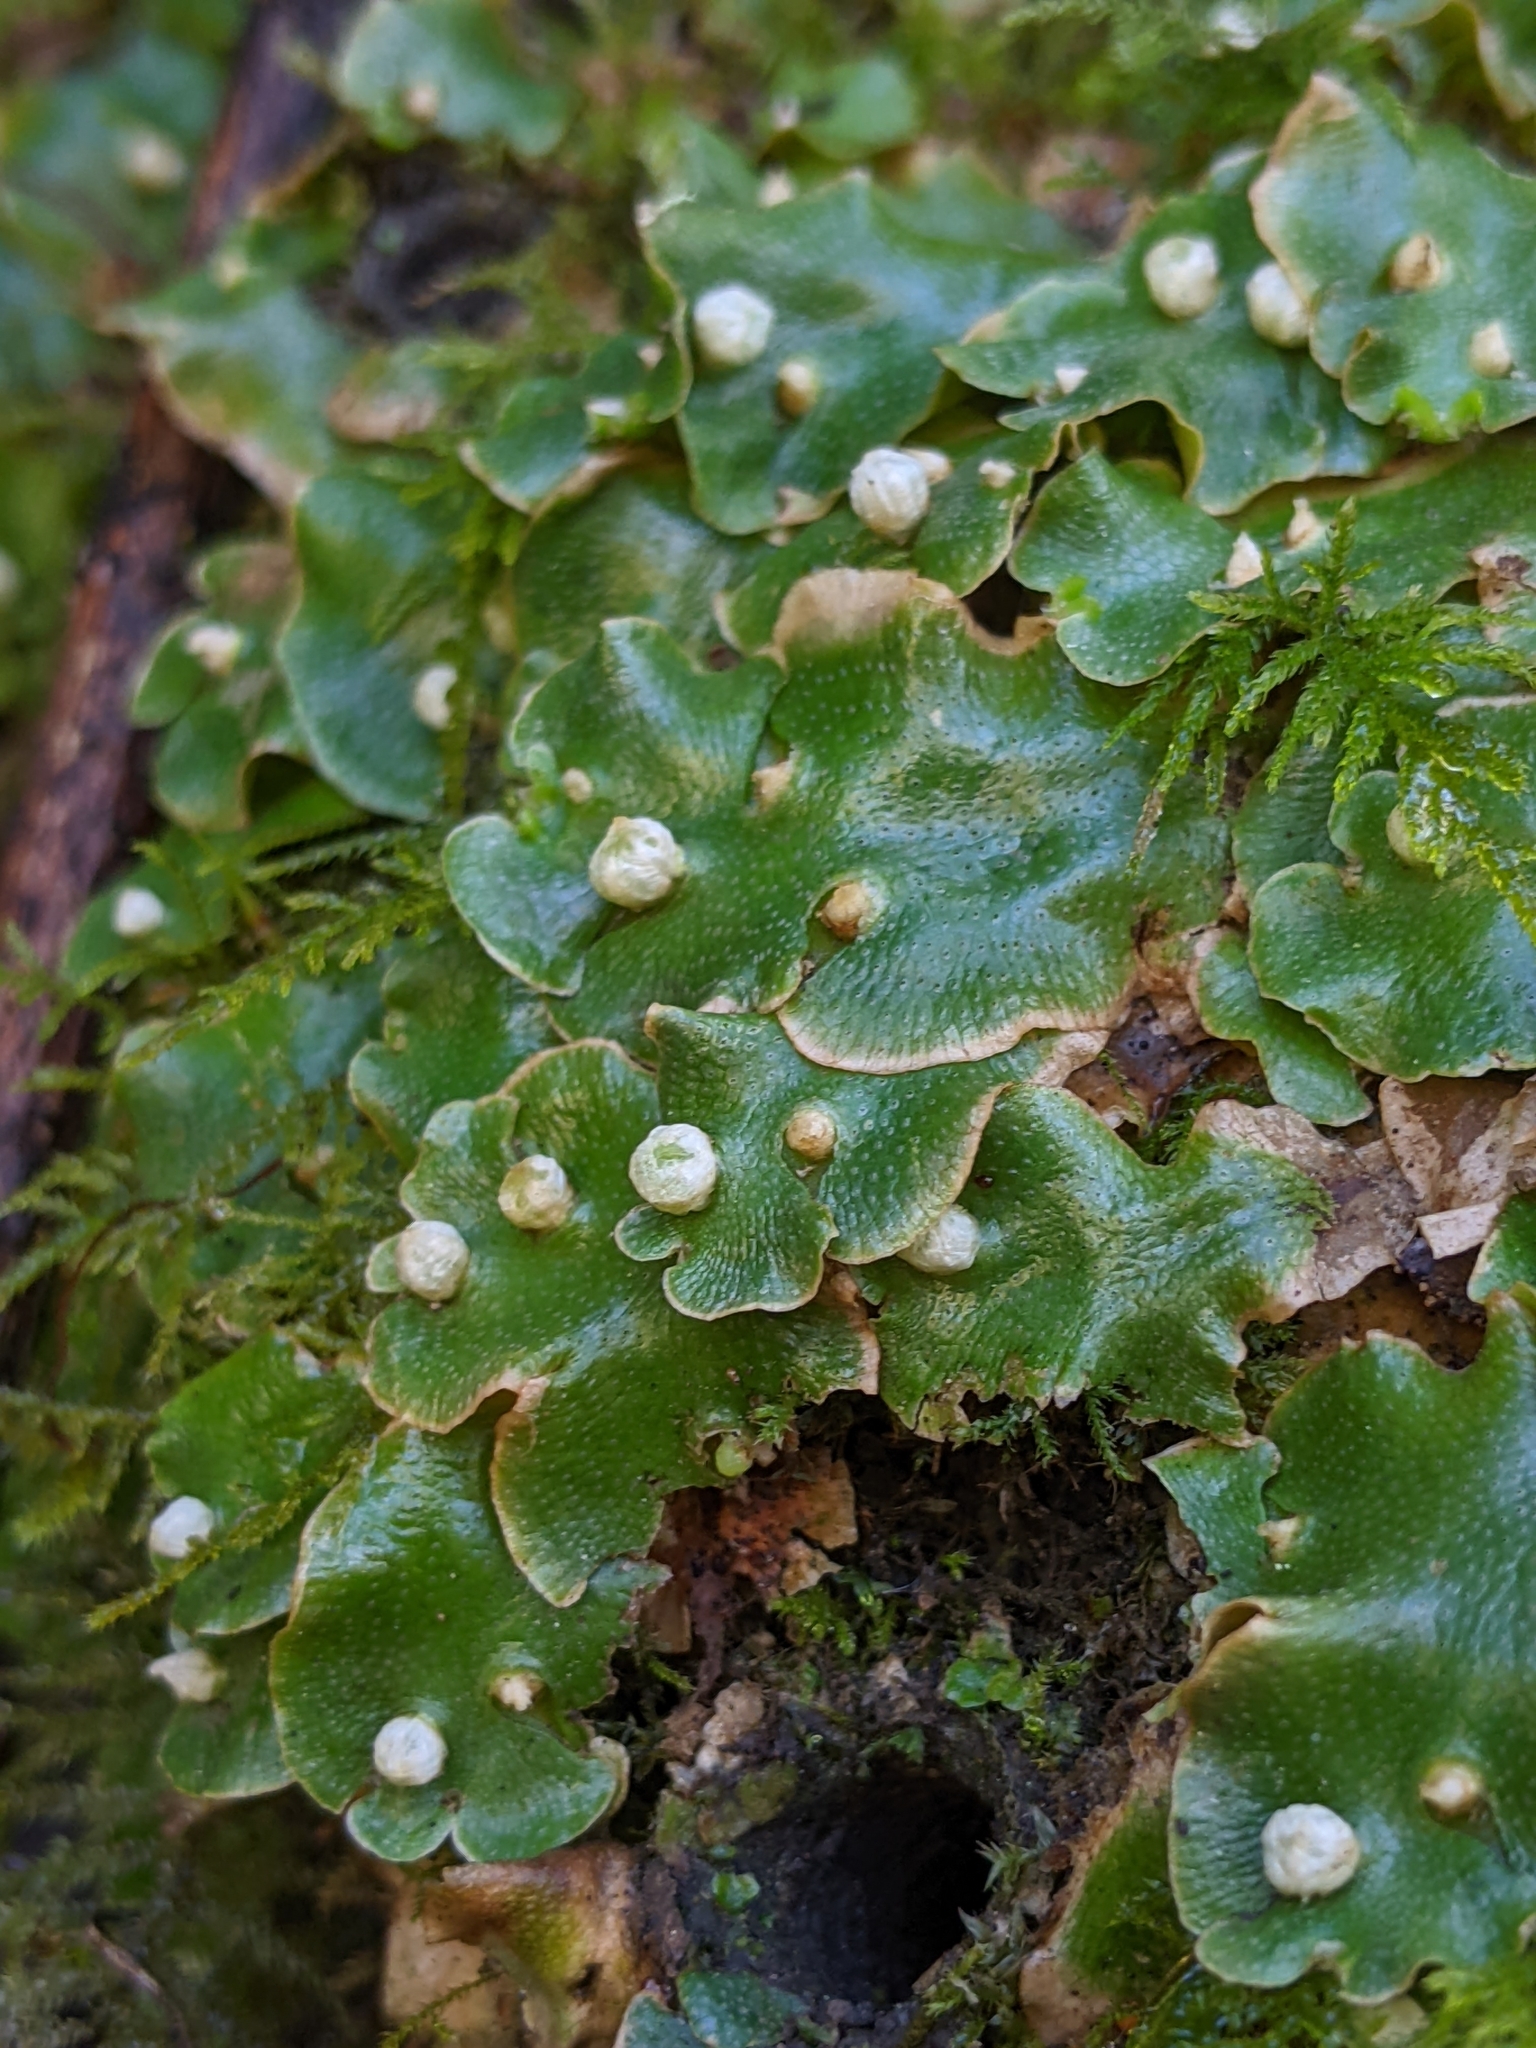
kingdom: Plantae
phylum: Marchantiophyta
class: Marchantiopsida
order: Lunulariales
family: Lunulariaceae
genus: Lunularia
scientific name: Lunularia cruciata
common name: Crescent-cup liverwort
